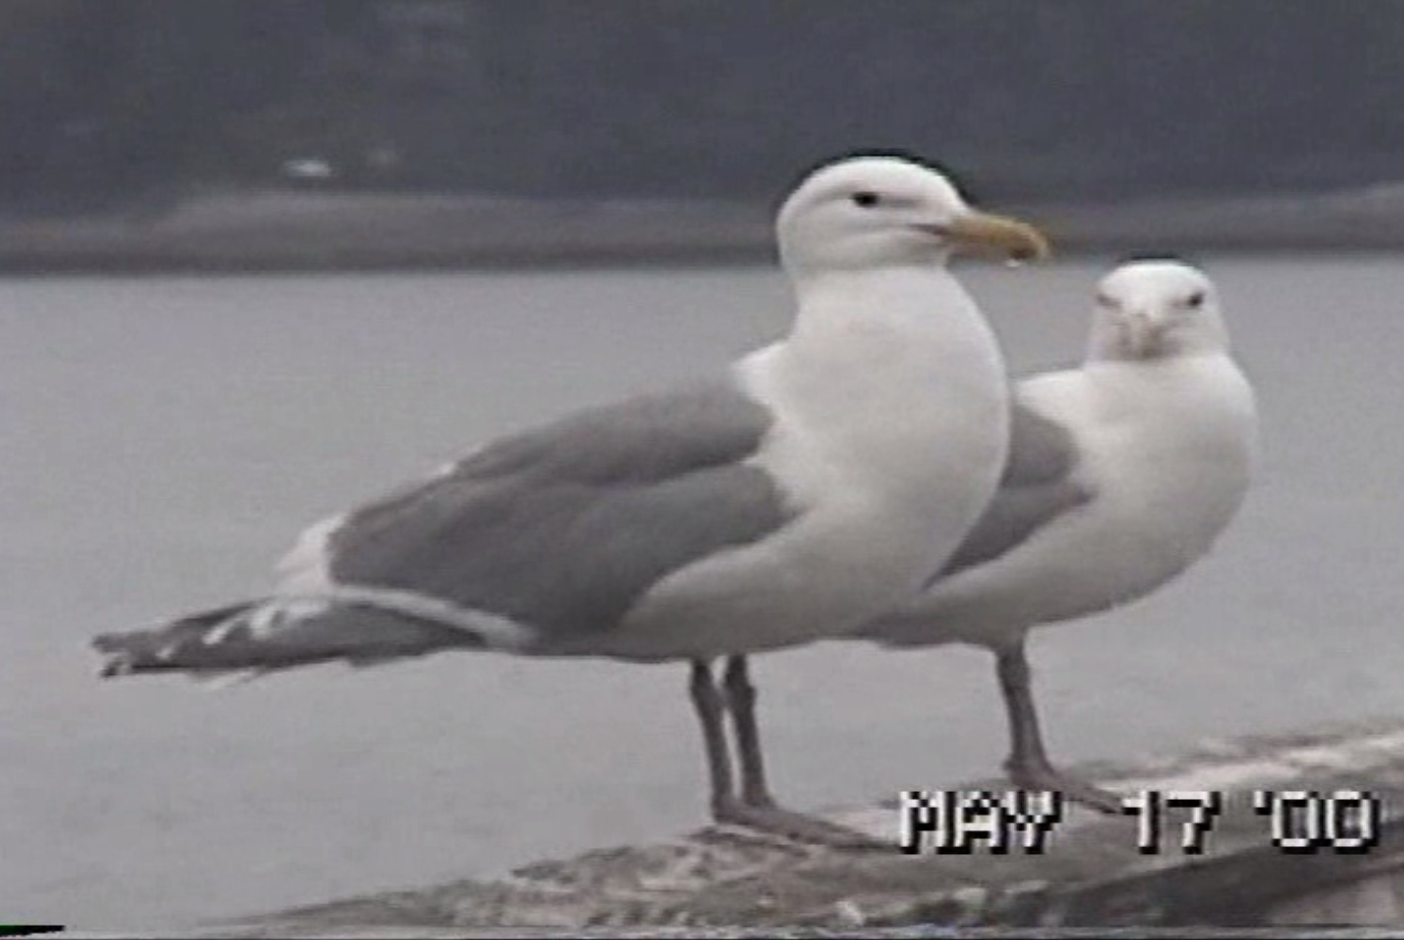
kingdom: Animalia
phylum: Chordata
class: Aves
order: Charadriiformes
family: Laridae
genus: Larus
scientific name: Larus
